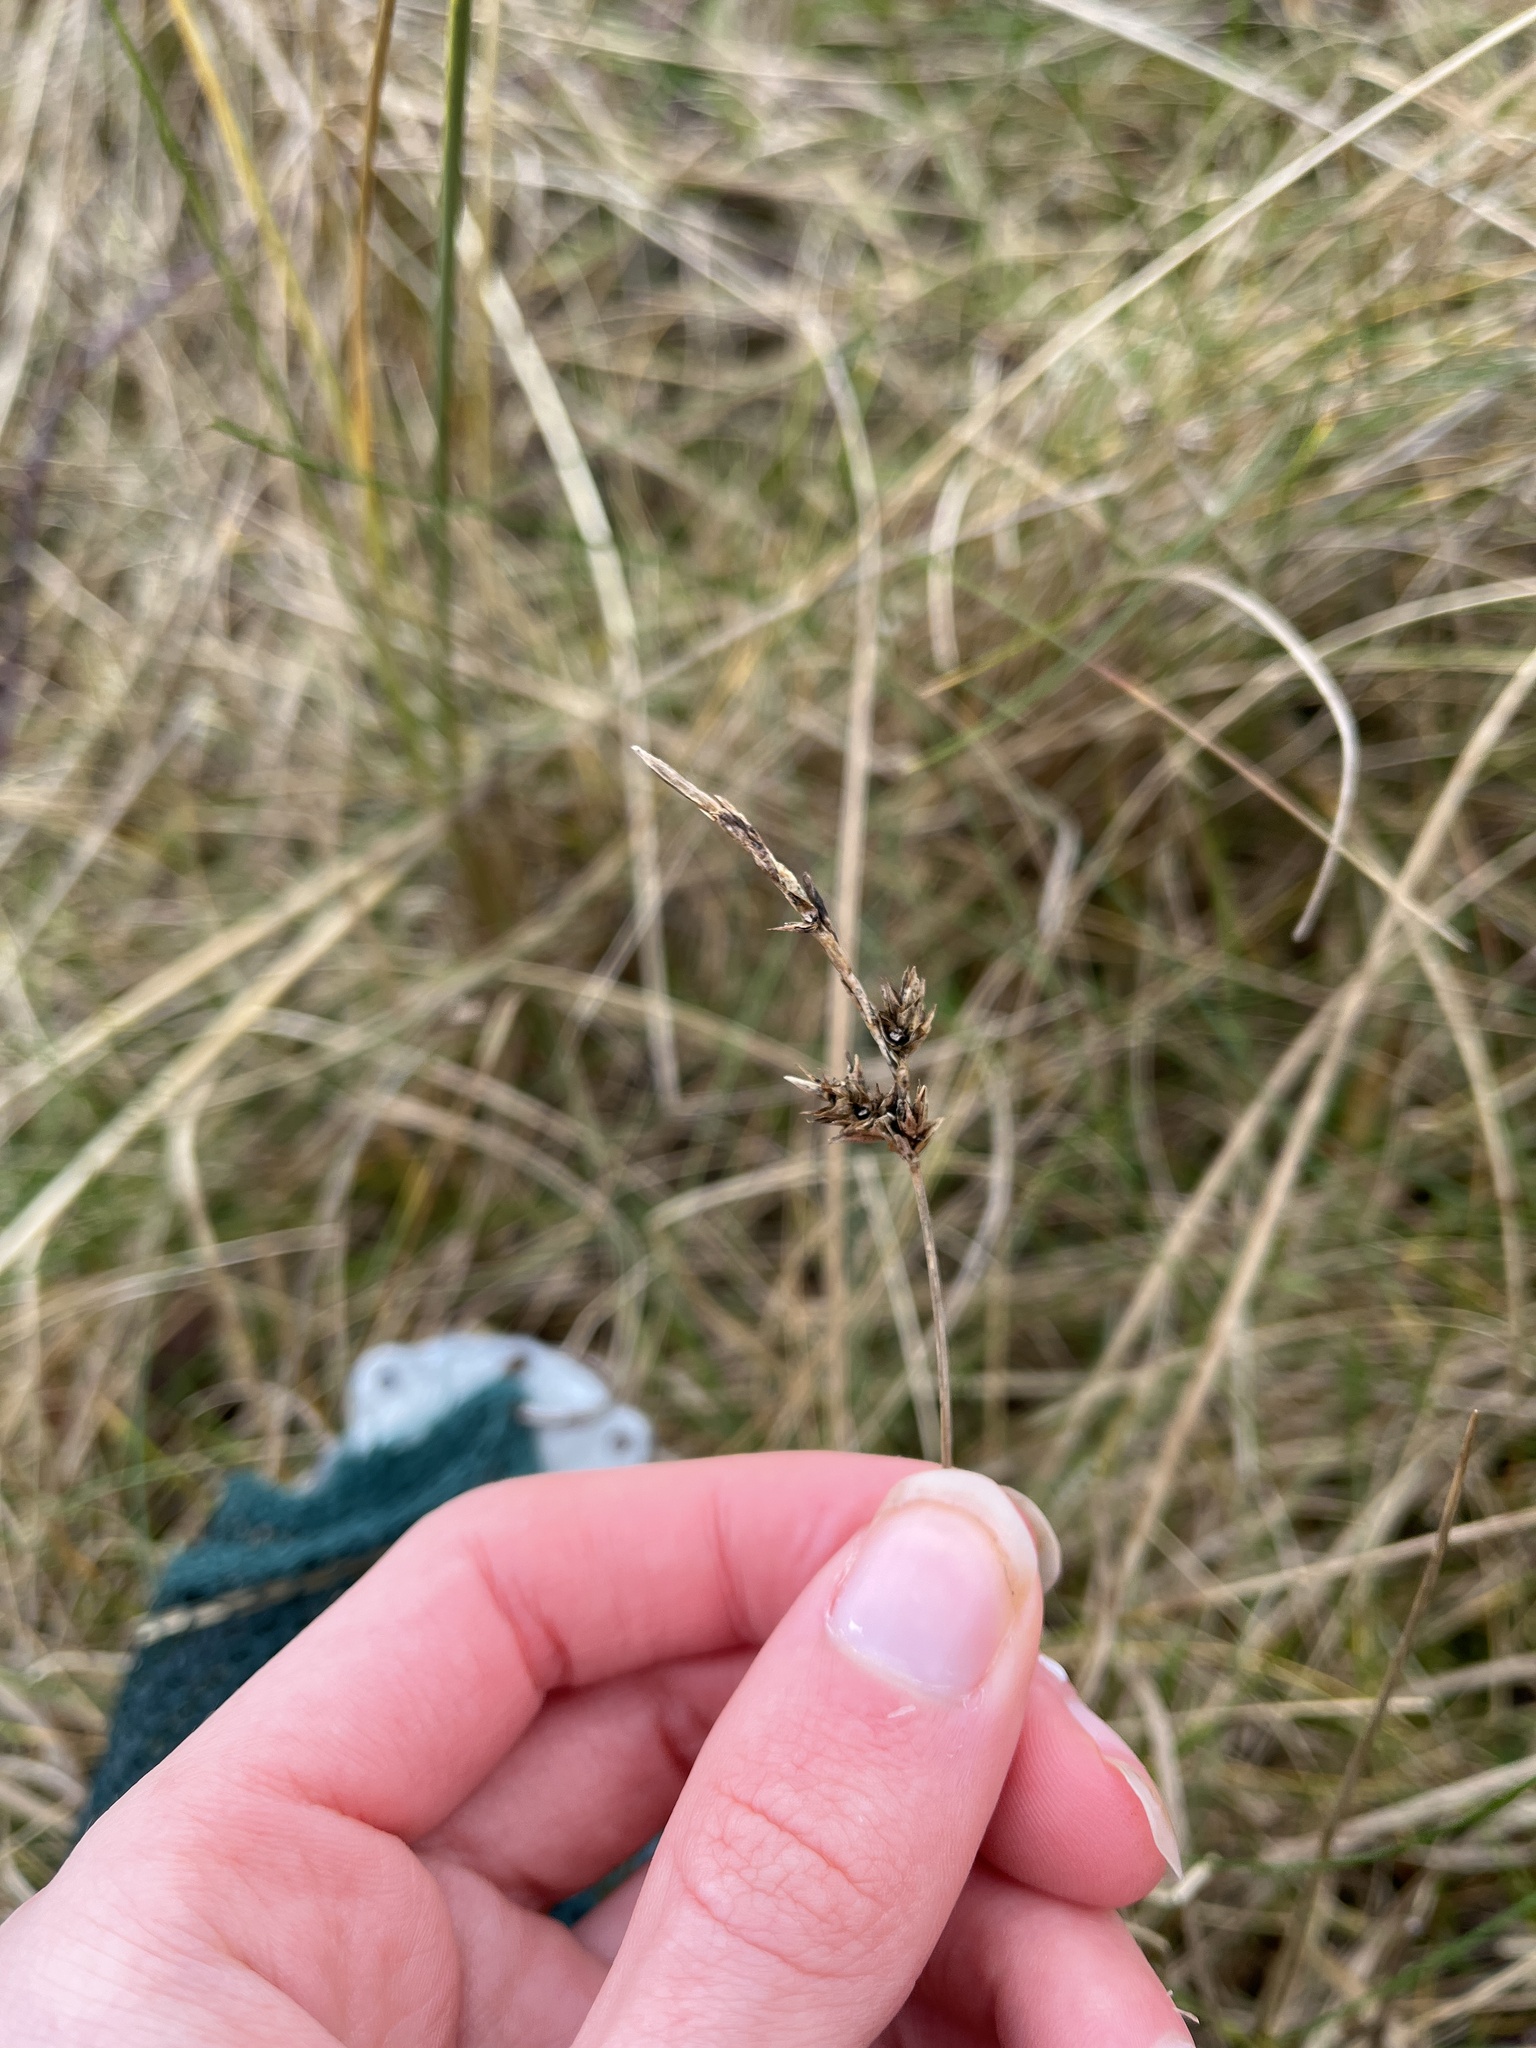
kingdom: Fungi
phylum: Basidiomycota
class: Ustilaginomycetes
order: Ustilaginales
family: Anthracoideaceae
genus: Anthracoidea
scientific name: Anthracoidea arenariae
